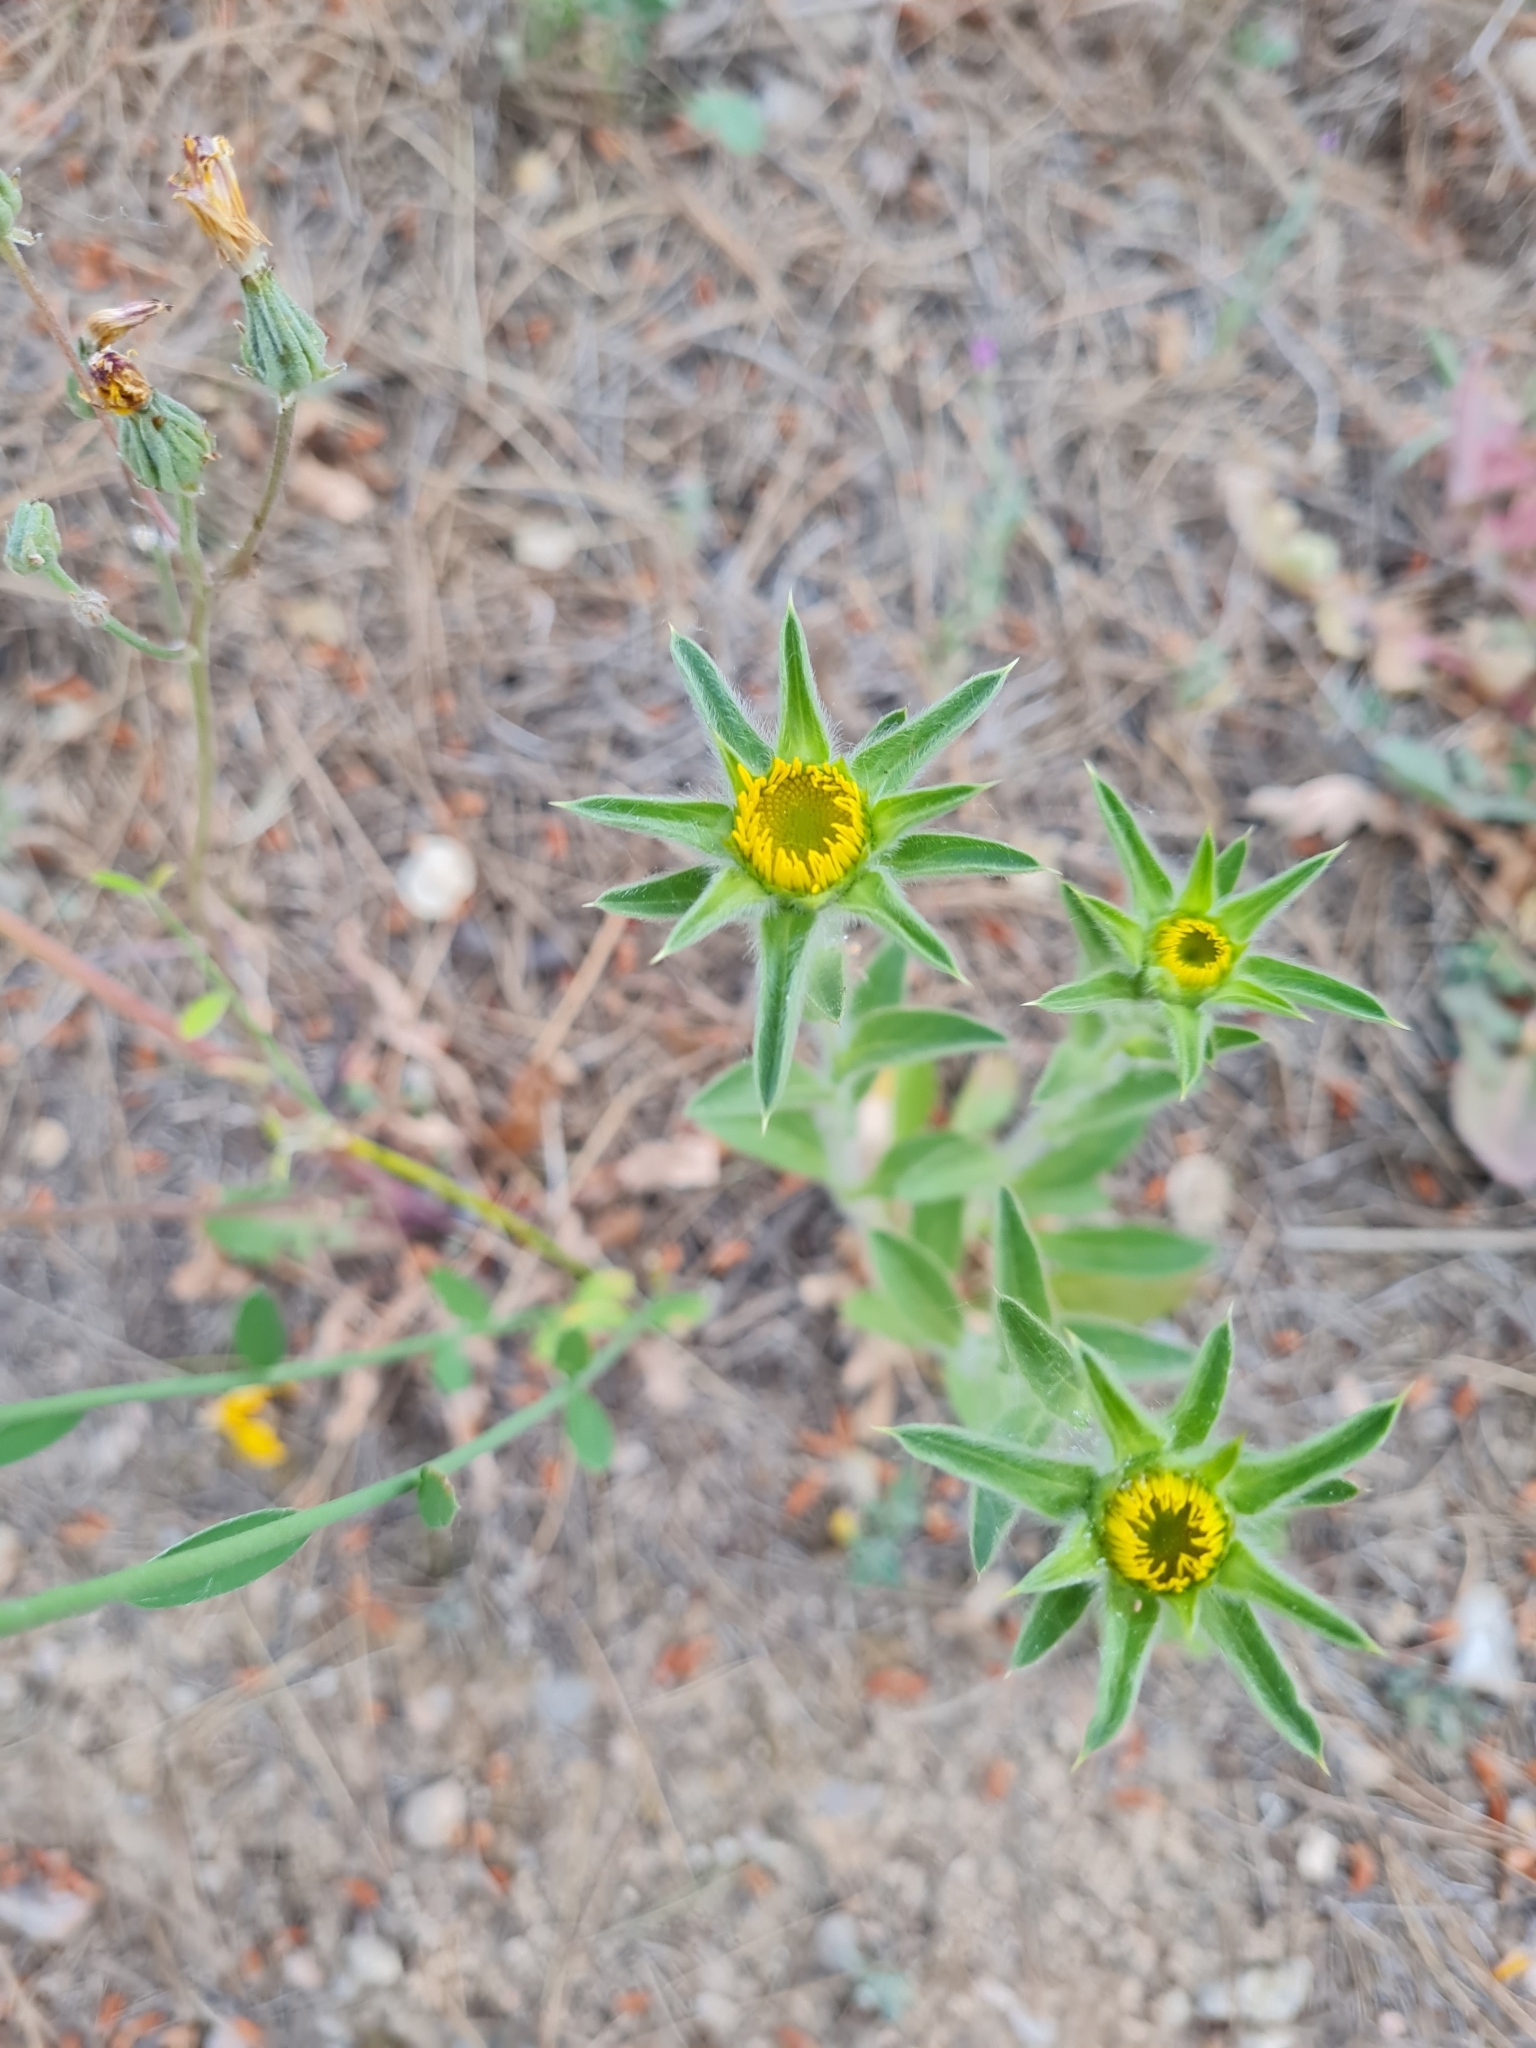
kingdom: Plantae
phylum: Tracheophyta
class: Magnoliopsida
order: Asterales
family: Asteraceae
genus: Pallenis
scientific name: Pallenis spinosa
